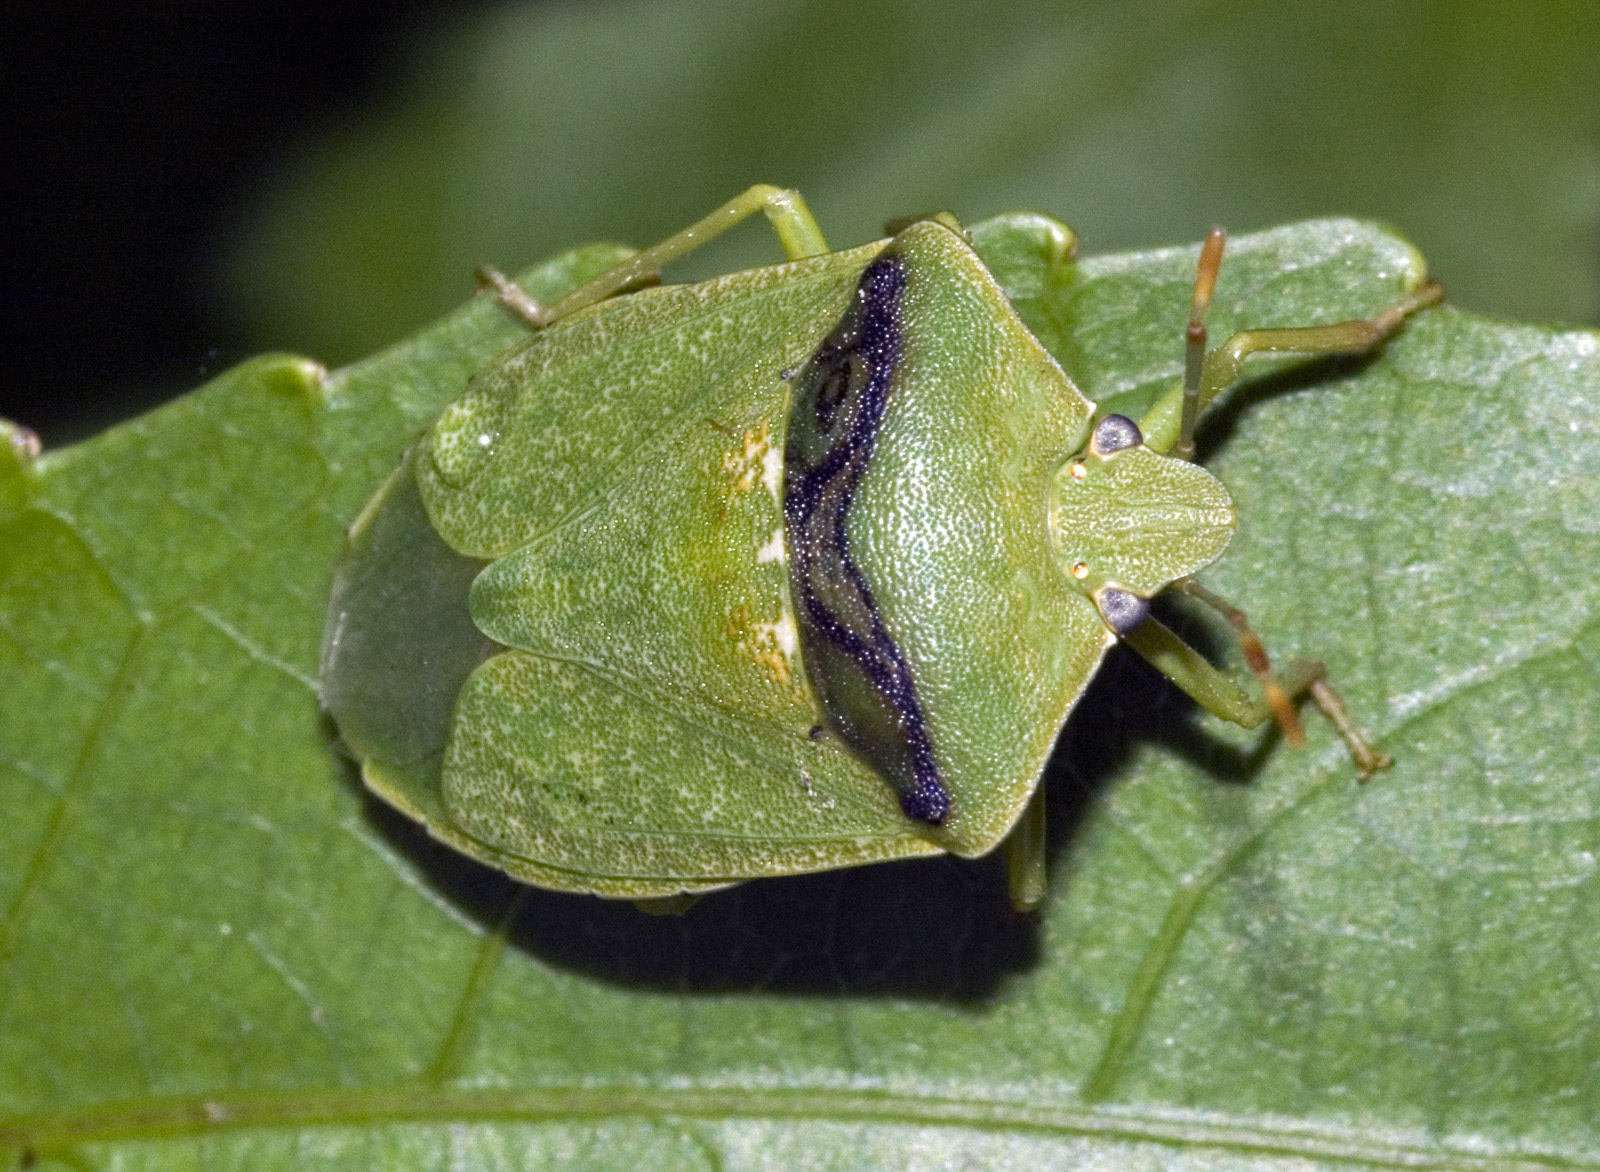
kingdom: Animalia
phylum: Arthropoda
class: Insecta
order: Hemiptera
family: Pentatomidae
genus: Nezara
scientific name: Nezara viridula
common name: Southern green stink bug
